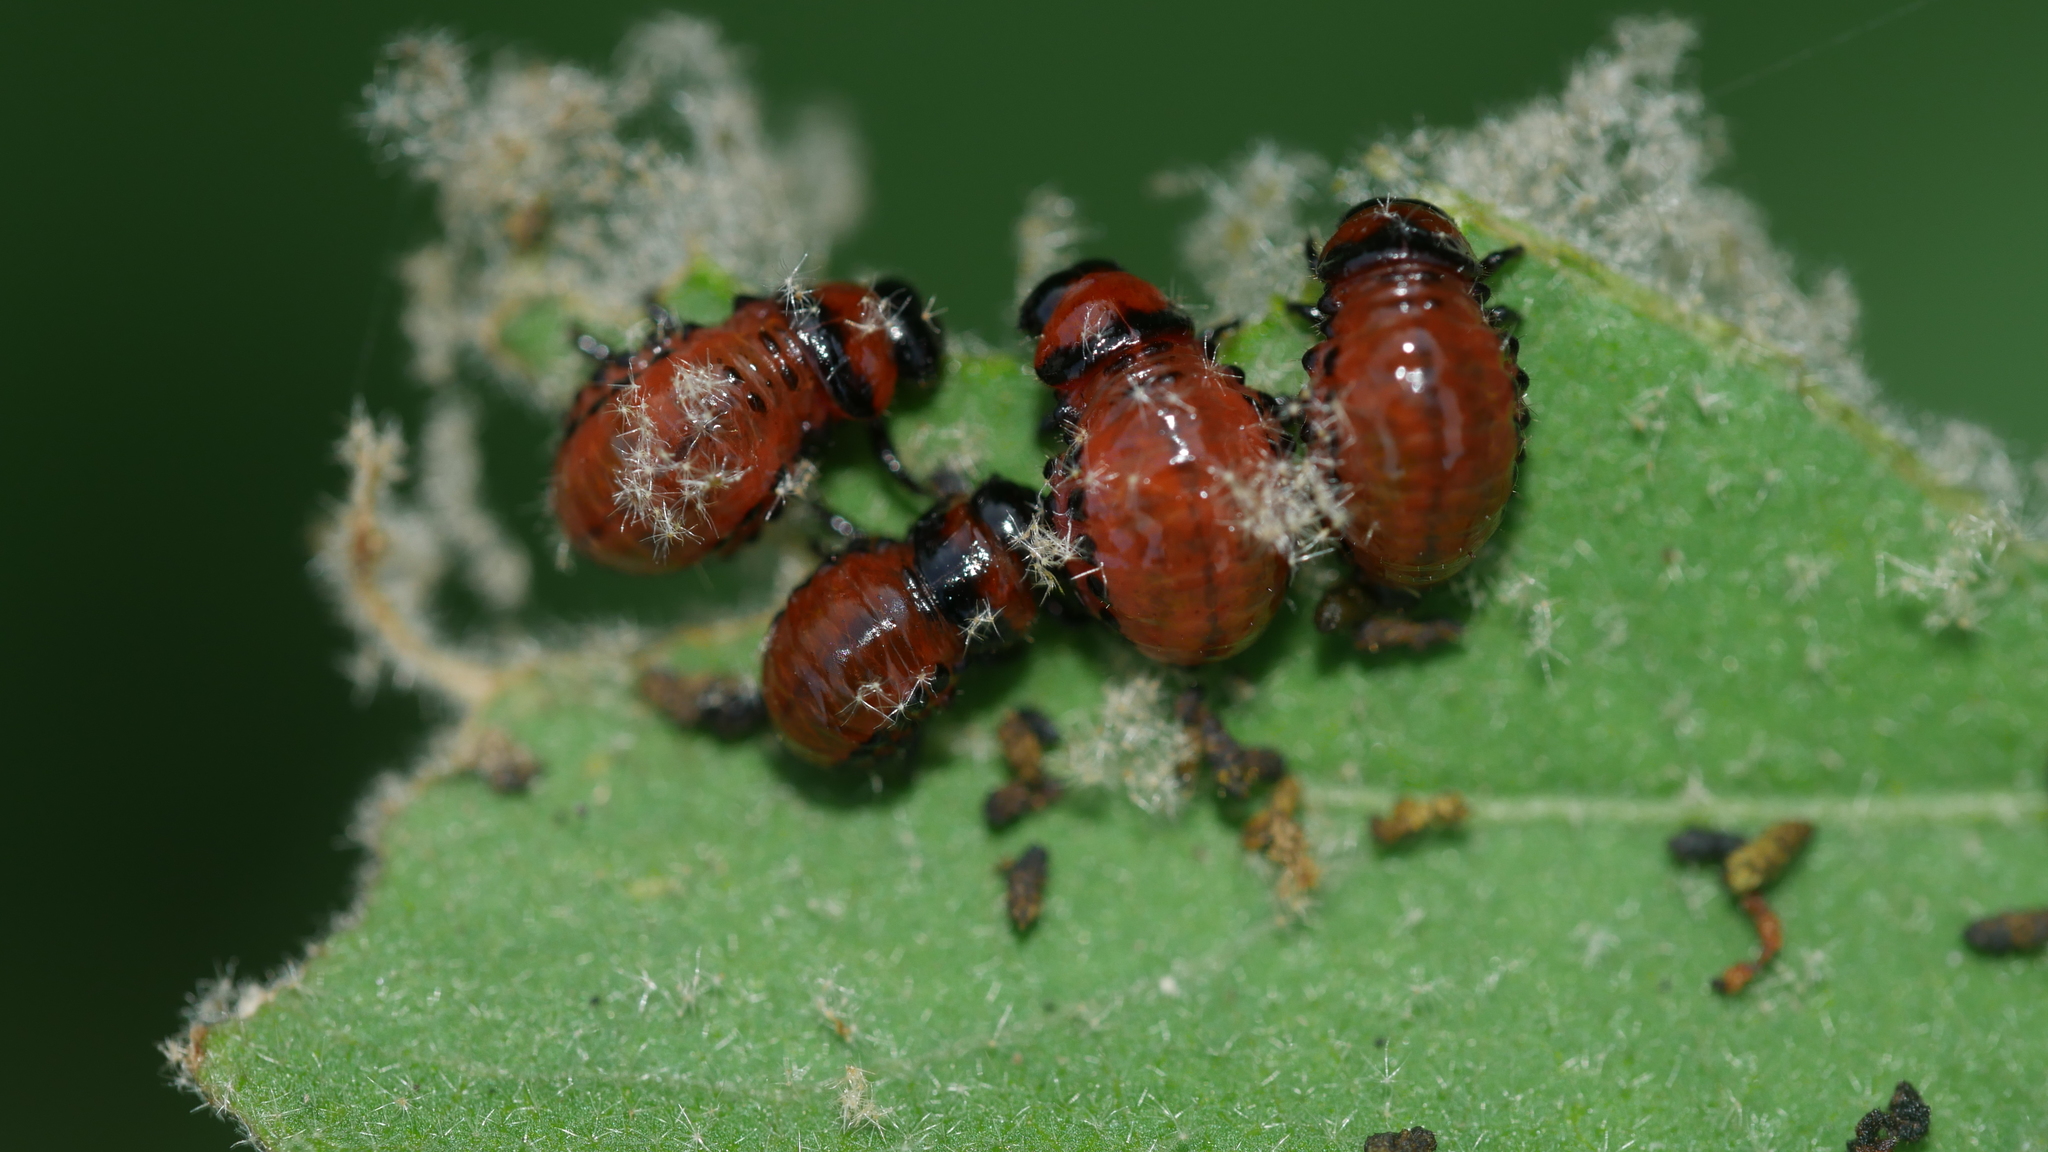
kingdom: Animalia
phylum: Arthropoda
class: Insecta
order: Coleoptera
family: Chrysomelidae
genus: Leptinotarsa
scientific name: Leptinotarsa decemlineata
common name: Colorado potato beetle
